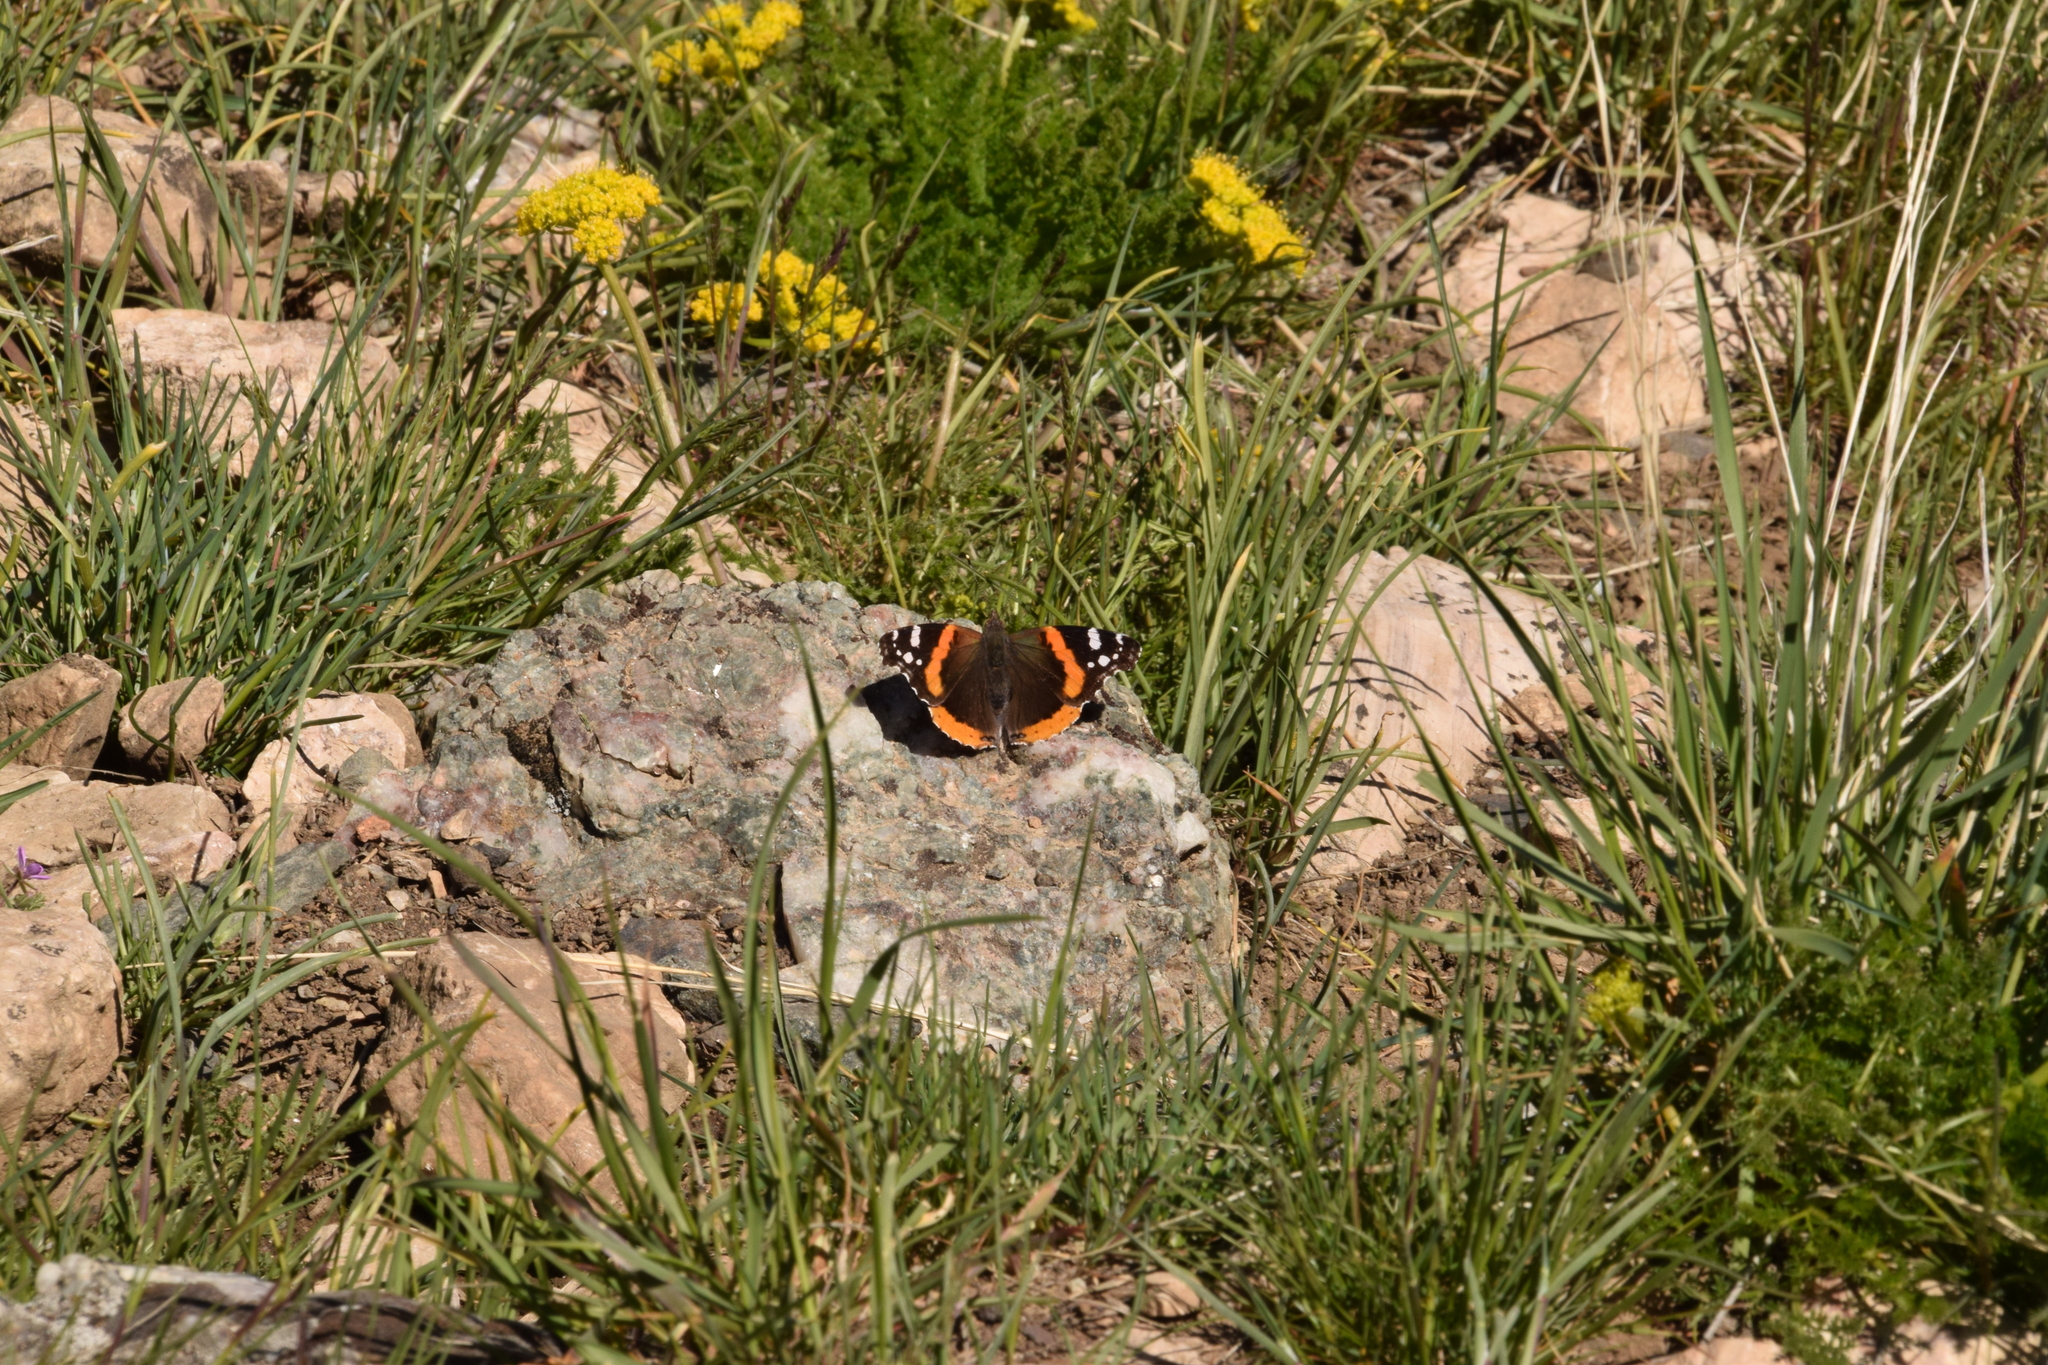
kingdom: Animalia
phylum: Arthropoda
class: Insecta
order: Lepidoptera
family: Nymphalidae
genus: Vanessa
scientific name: Vanessa atalanta
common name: Red admiral
